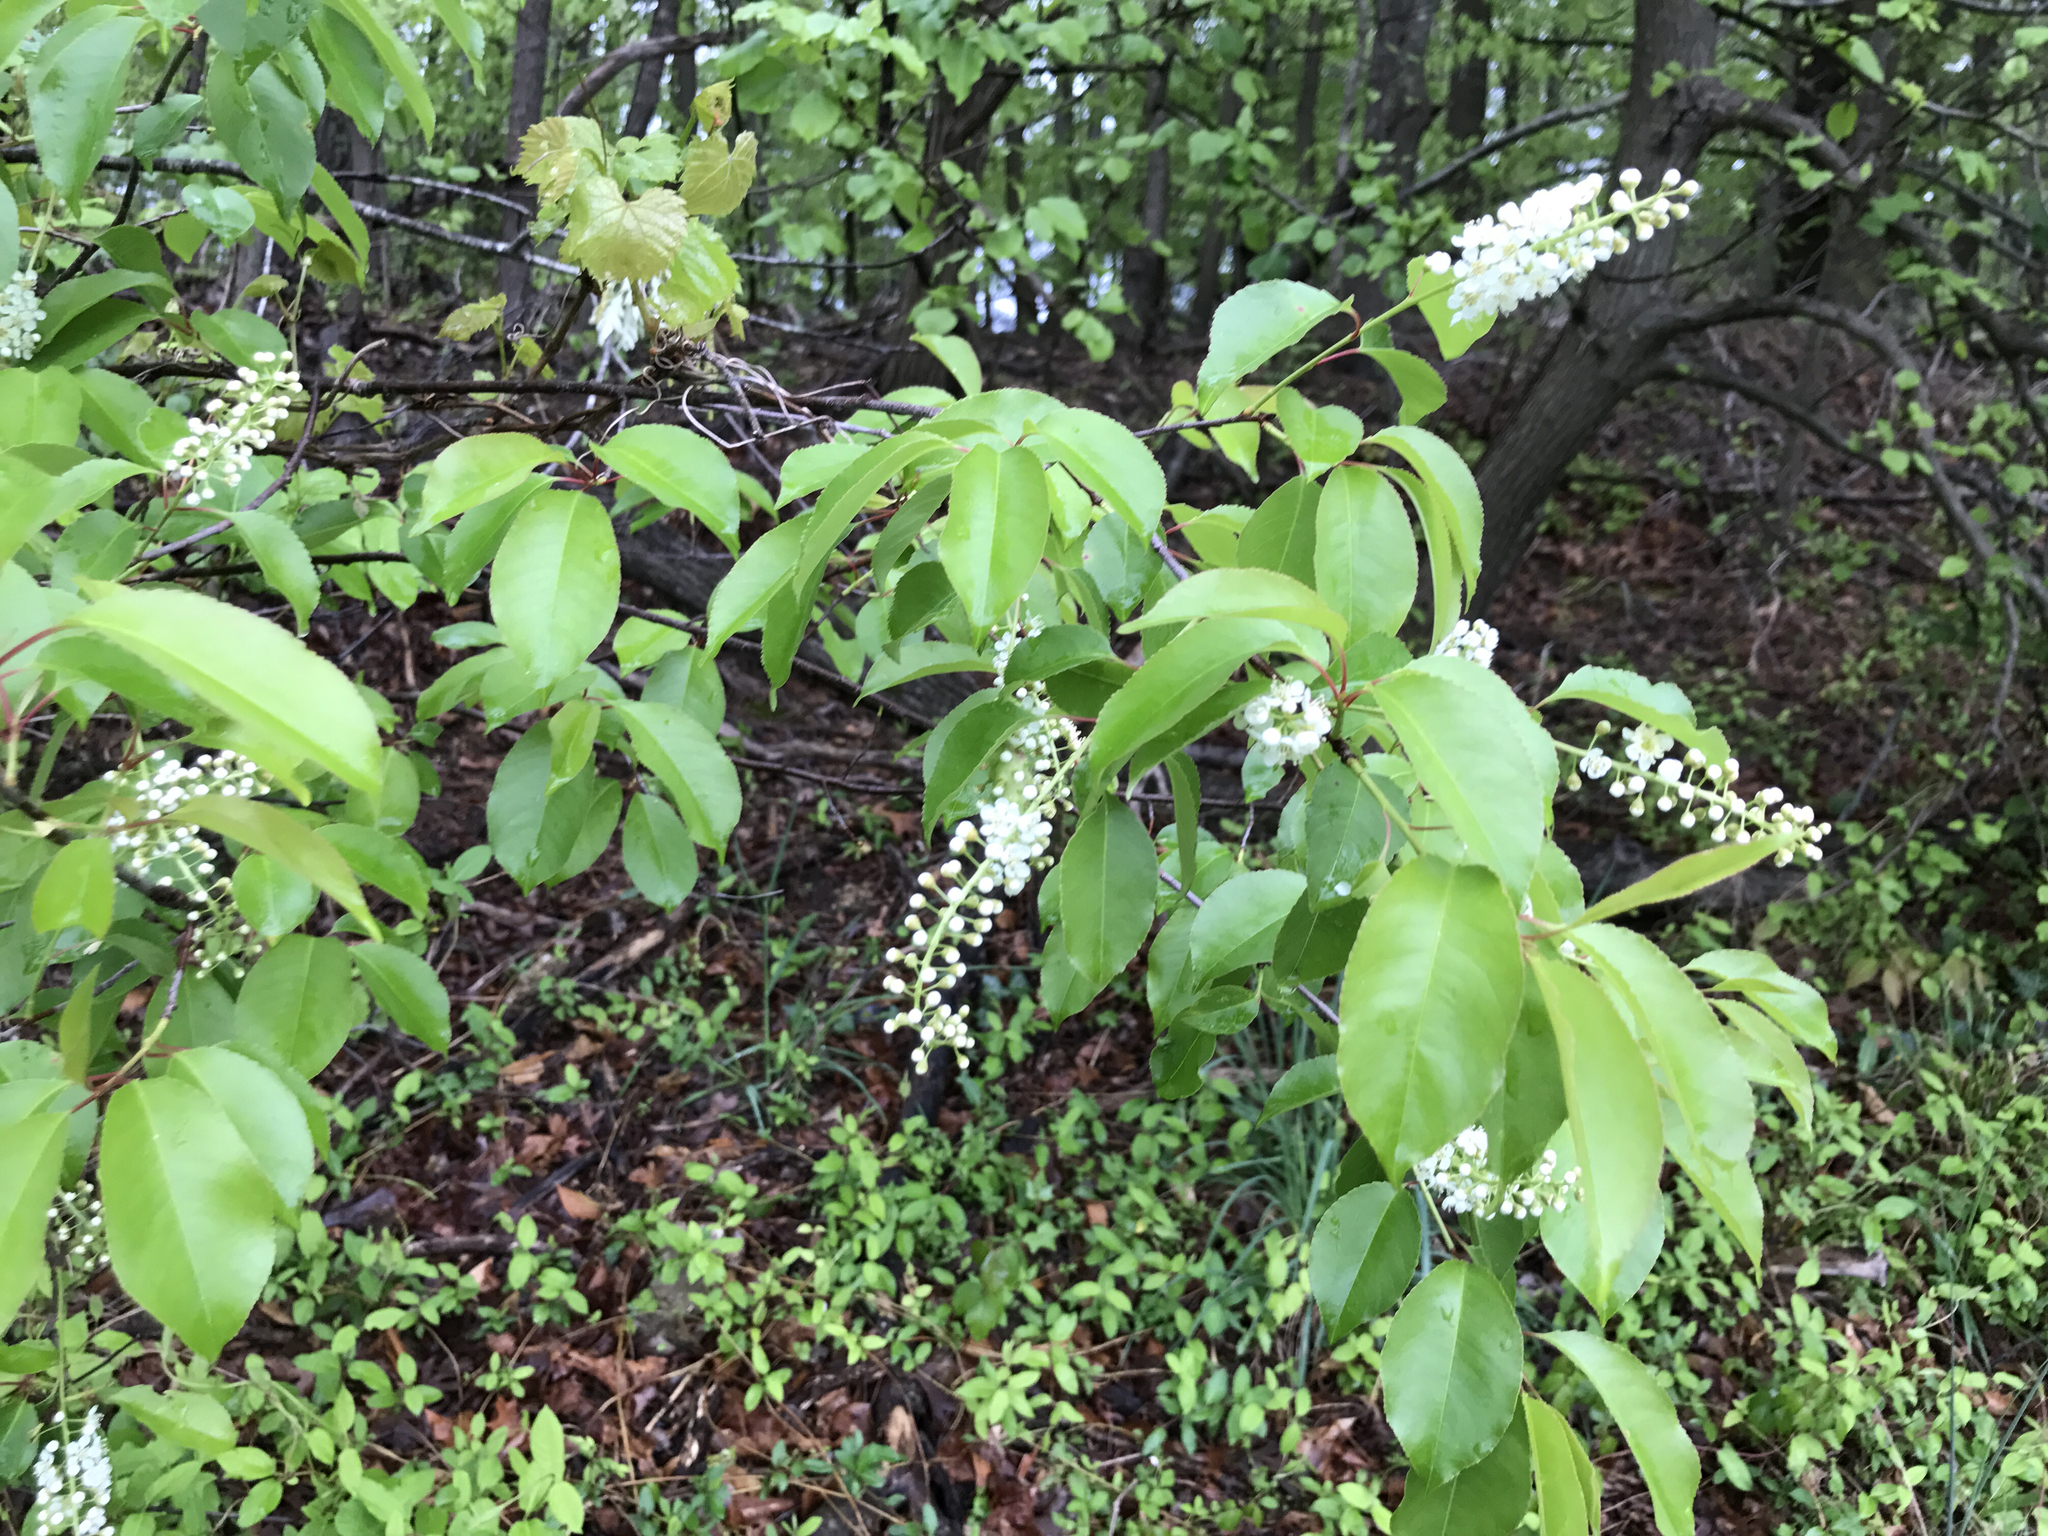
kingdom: Plantae
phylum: Tracheophyta
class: Magnoliopsida
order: Rosales
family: Rosaceae
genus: Prunus
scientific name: Prunus serotina
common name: Black cherry
